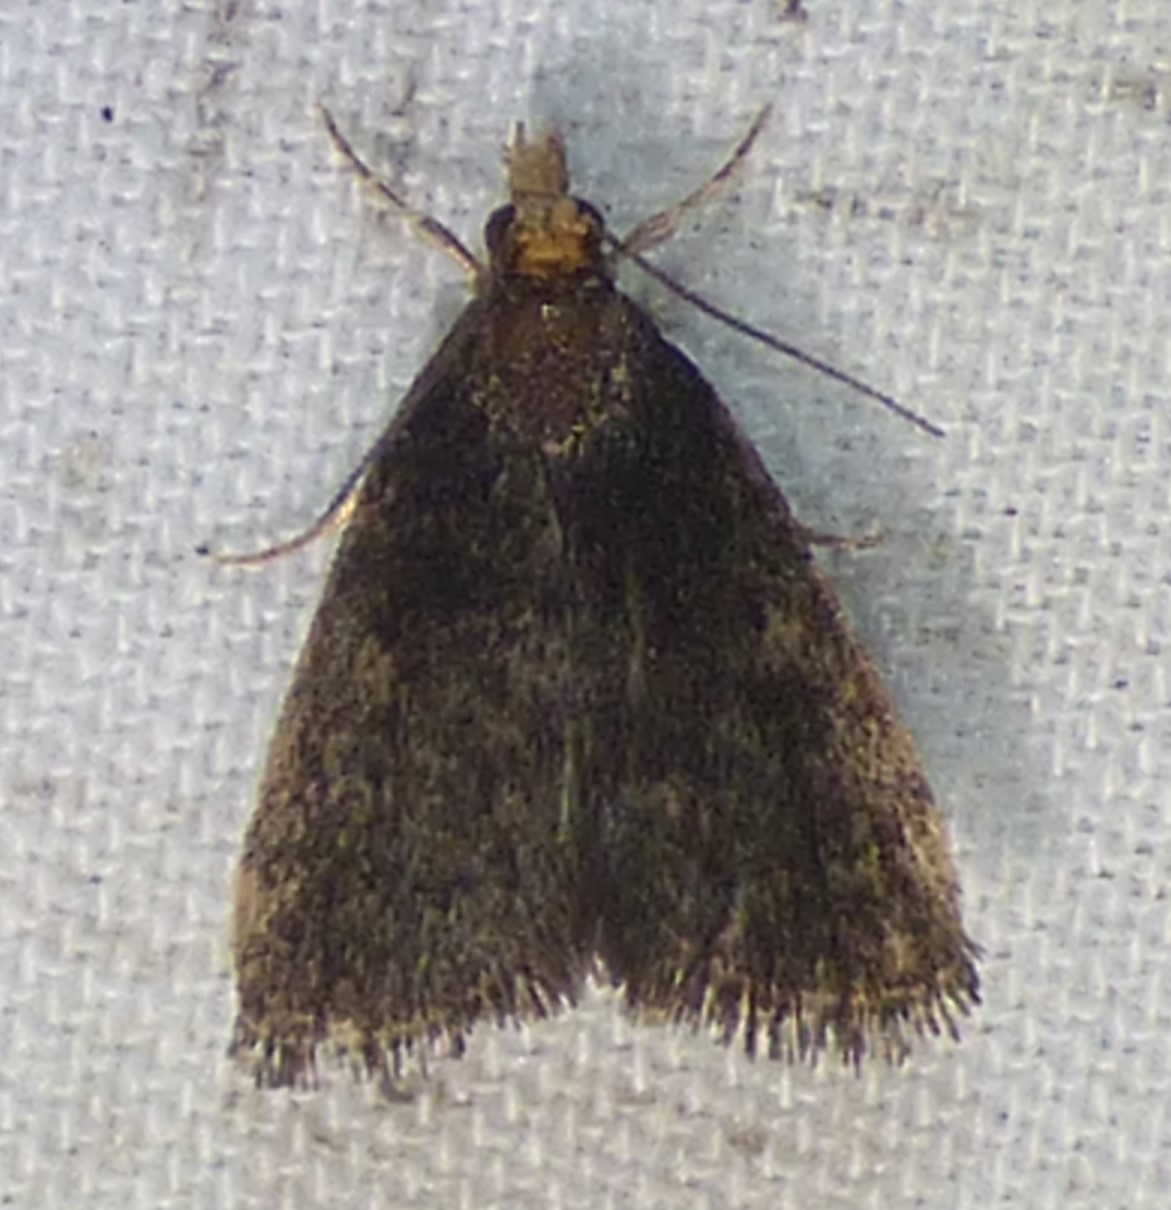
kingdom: Animalia
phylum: Arthropoda
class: Insecta
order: Lepidoptera
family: Crambidae
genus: Pyrausta
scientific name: Pyrausta merrickalis
